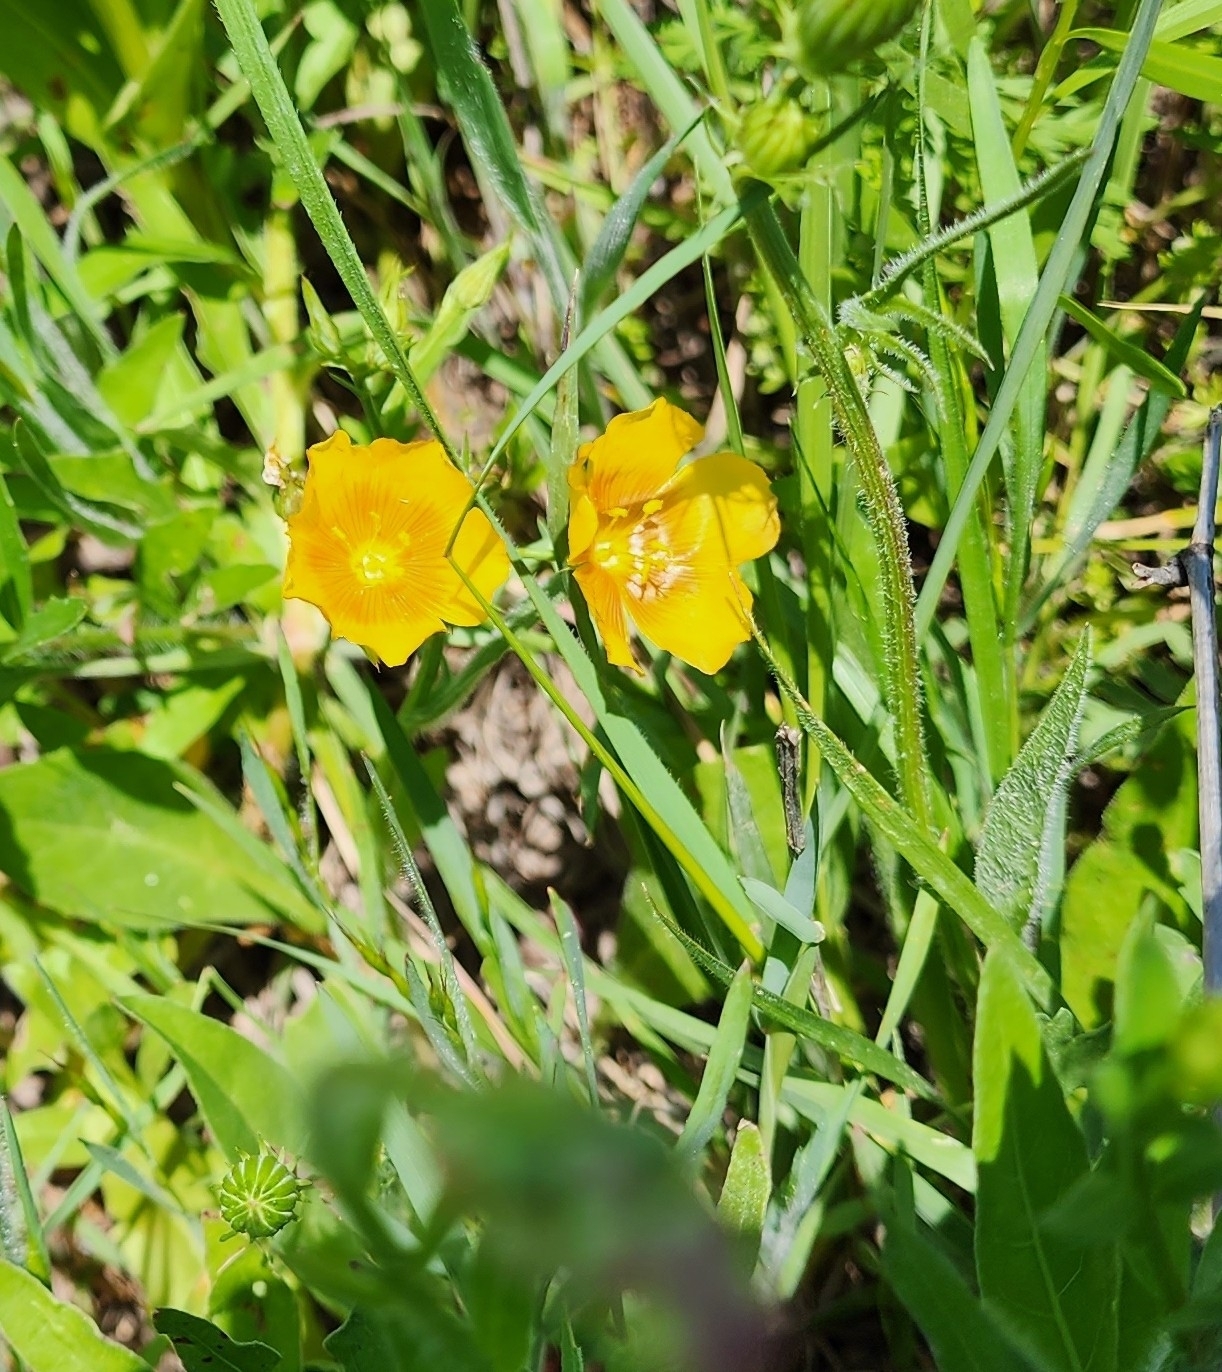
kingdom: Plantae
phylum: Tracheophyta
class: Magnoliopsida
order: Malpighiales
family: Linaceae
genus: Linum
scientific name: Linum rigidum
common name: Stiff-stem flax
